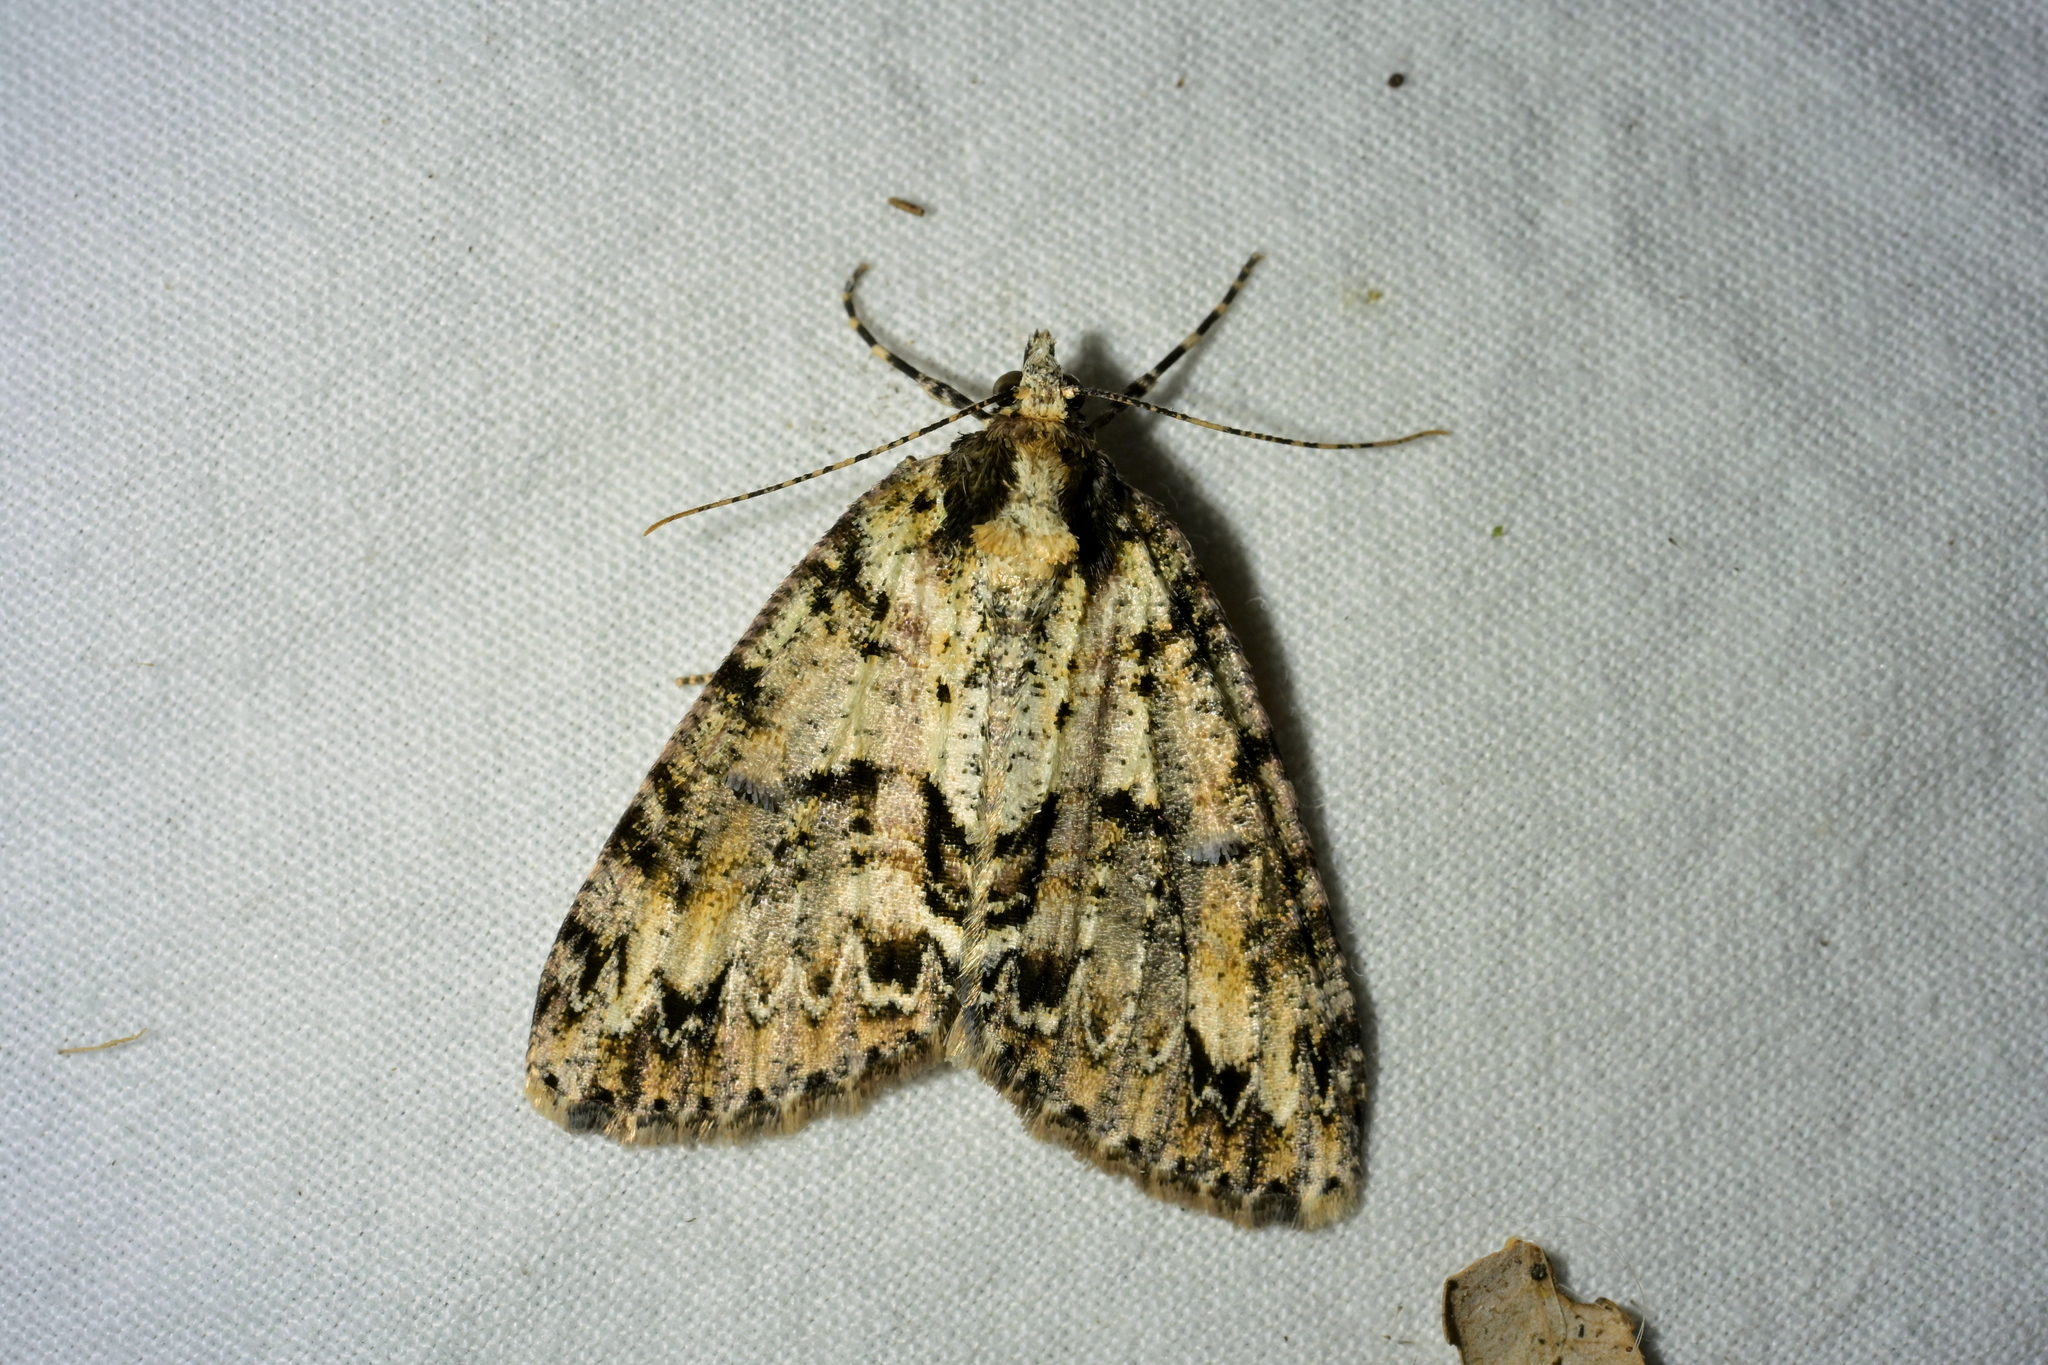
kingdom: Animalia
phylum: Arthropoda
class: Insecta
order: Lepidoptera
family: Geometridae
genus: Pseudocoremia
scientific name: Pseudocoremia suavis
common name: Common forest looper
